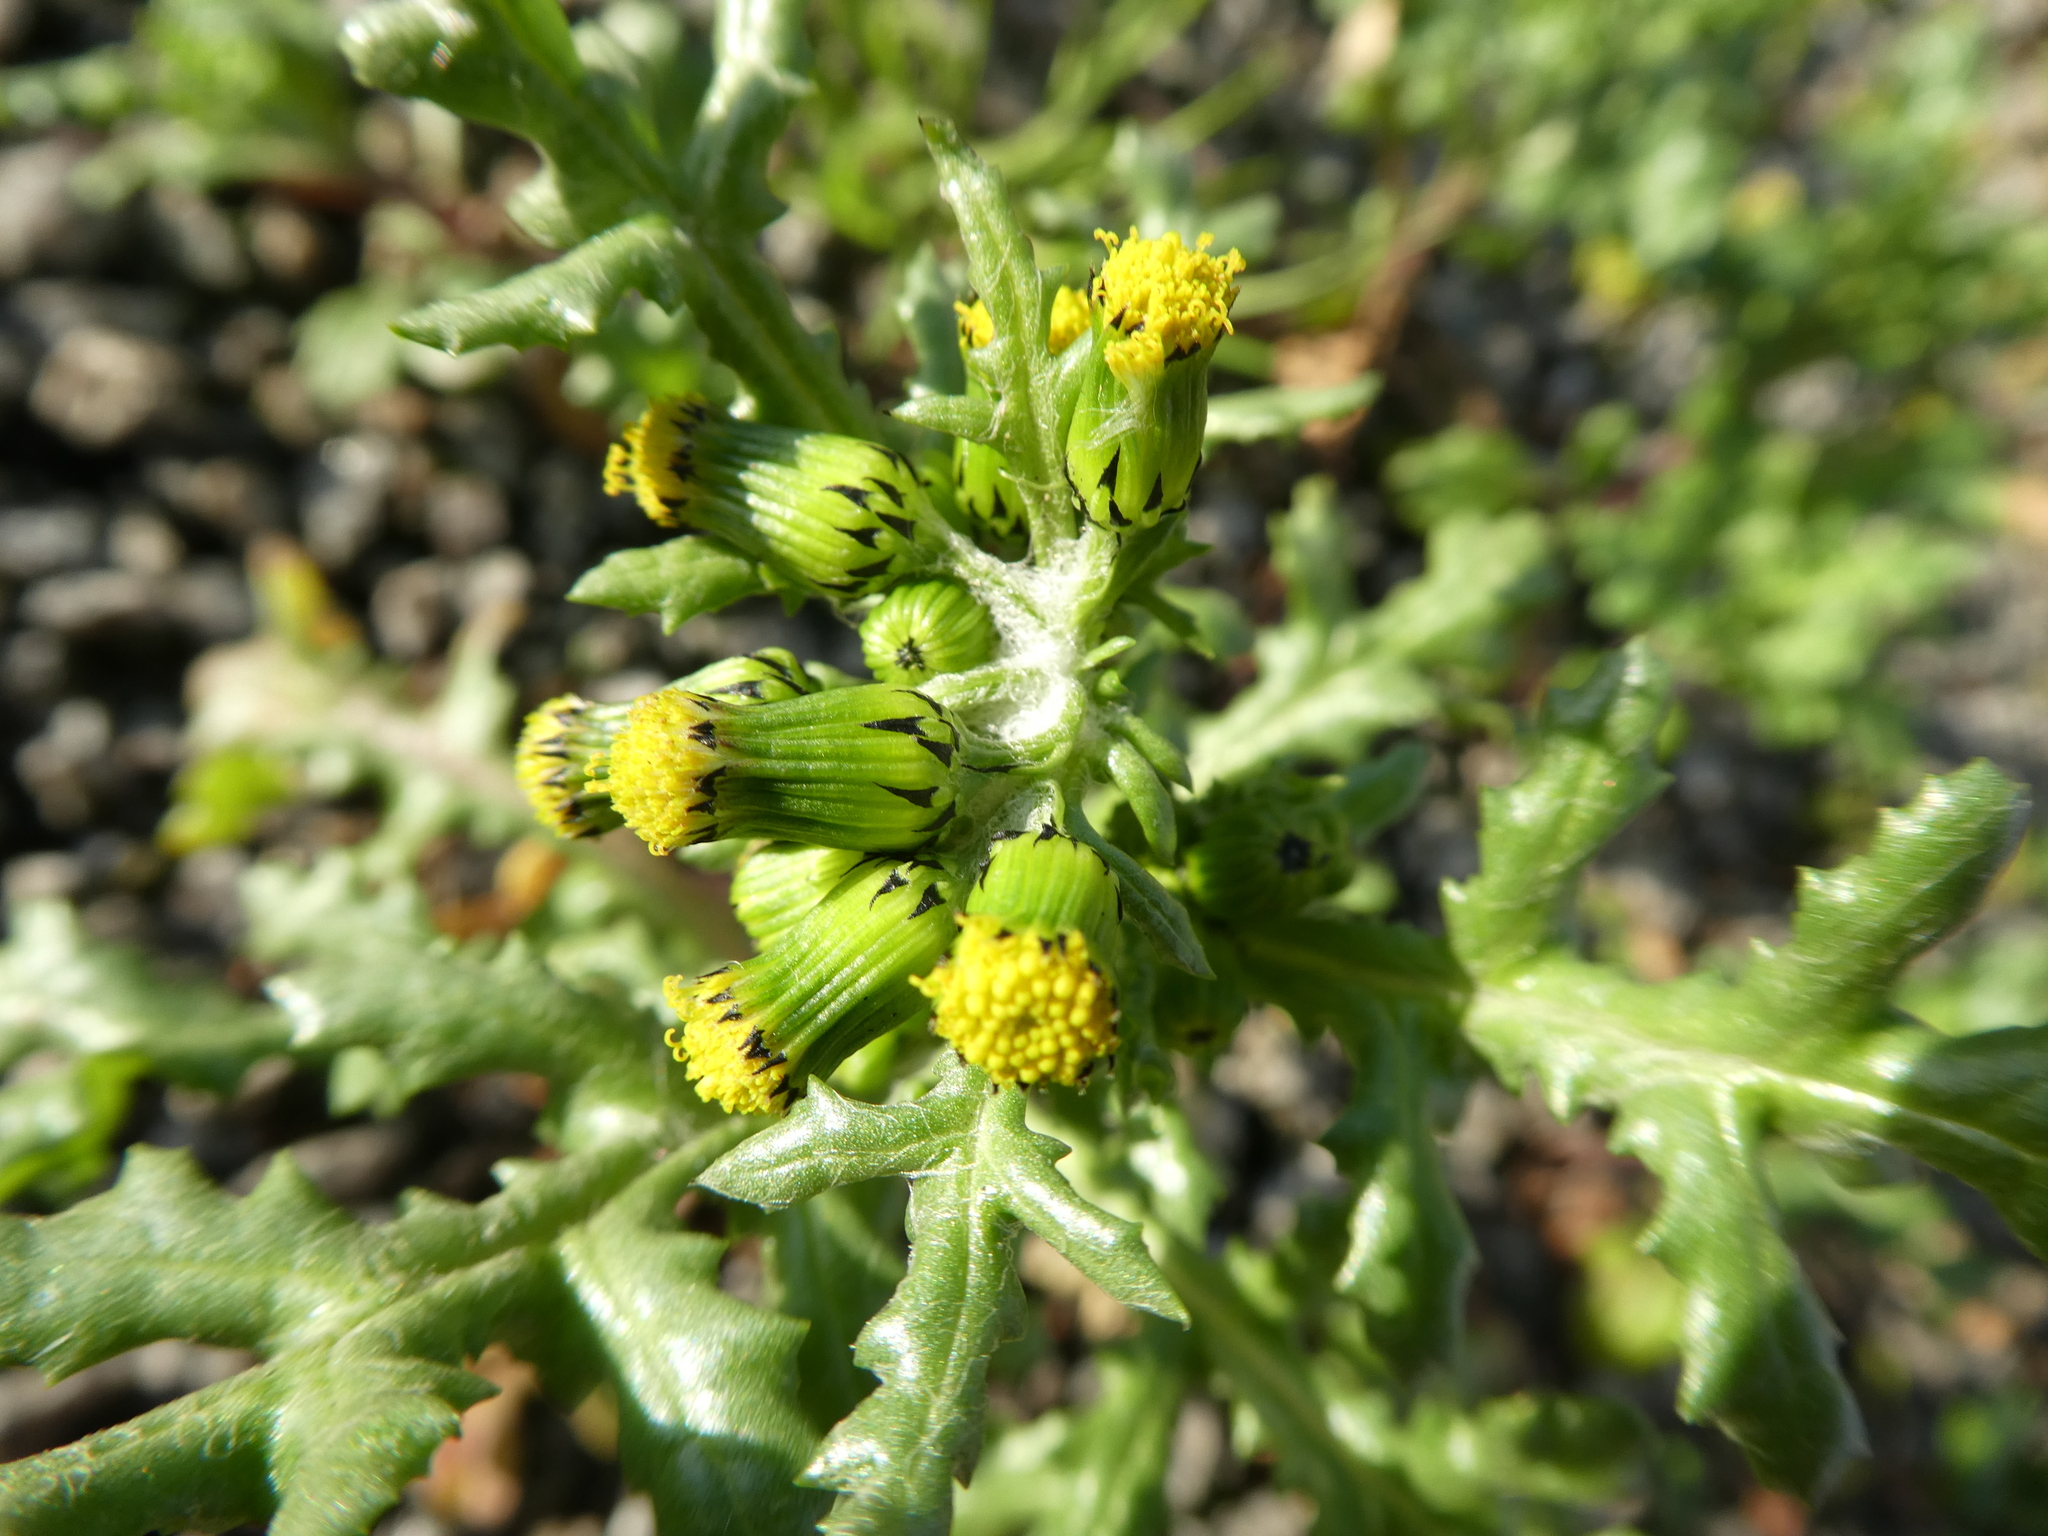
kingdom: Plantae
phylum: Tracheophyta
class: Magnoliopsida
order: Asterales
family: Asteraceae
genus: Senecio
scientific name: Senecio vulgaris
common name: Old-man-in-the-spring
